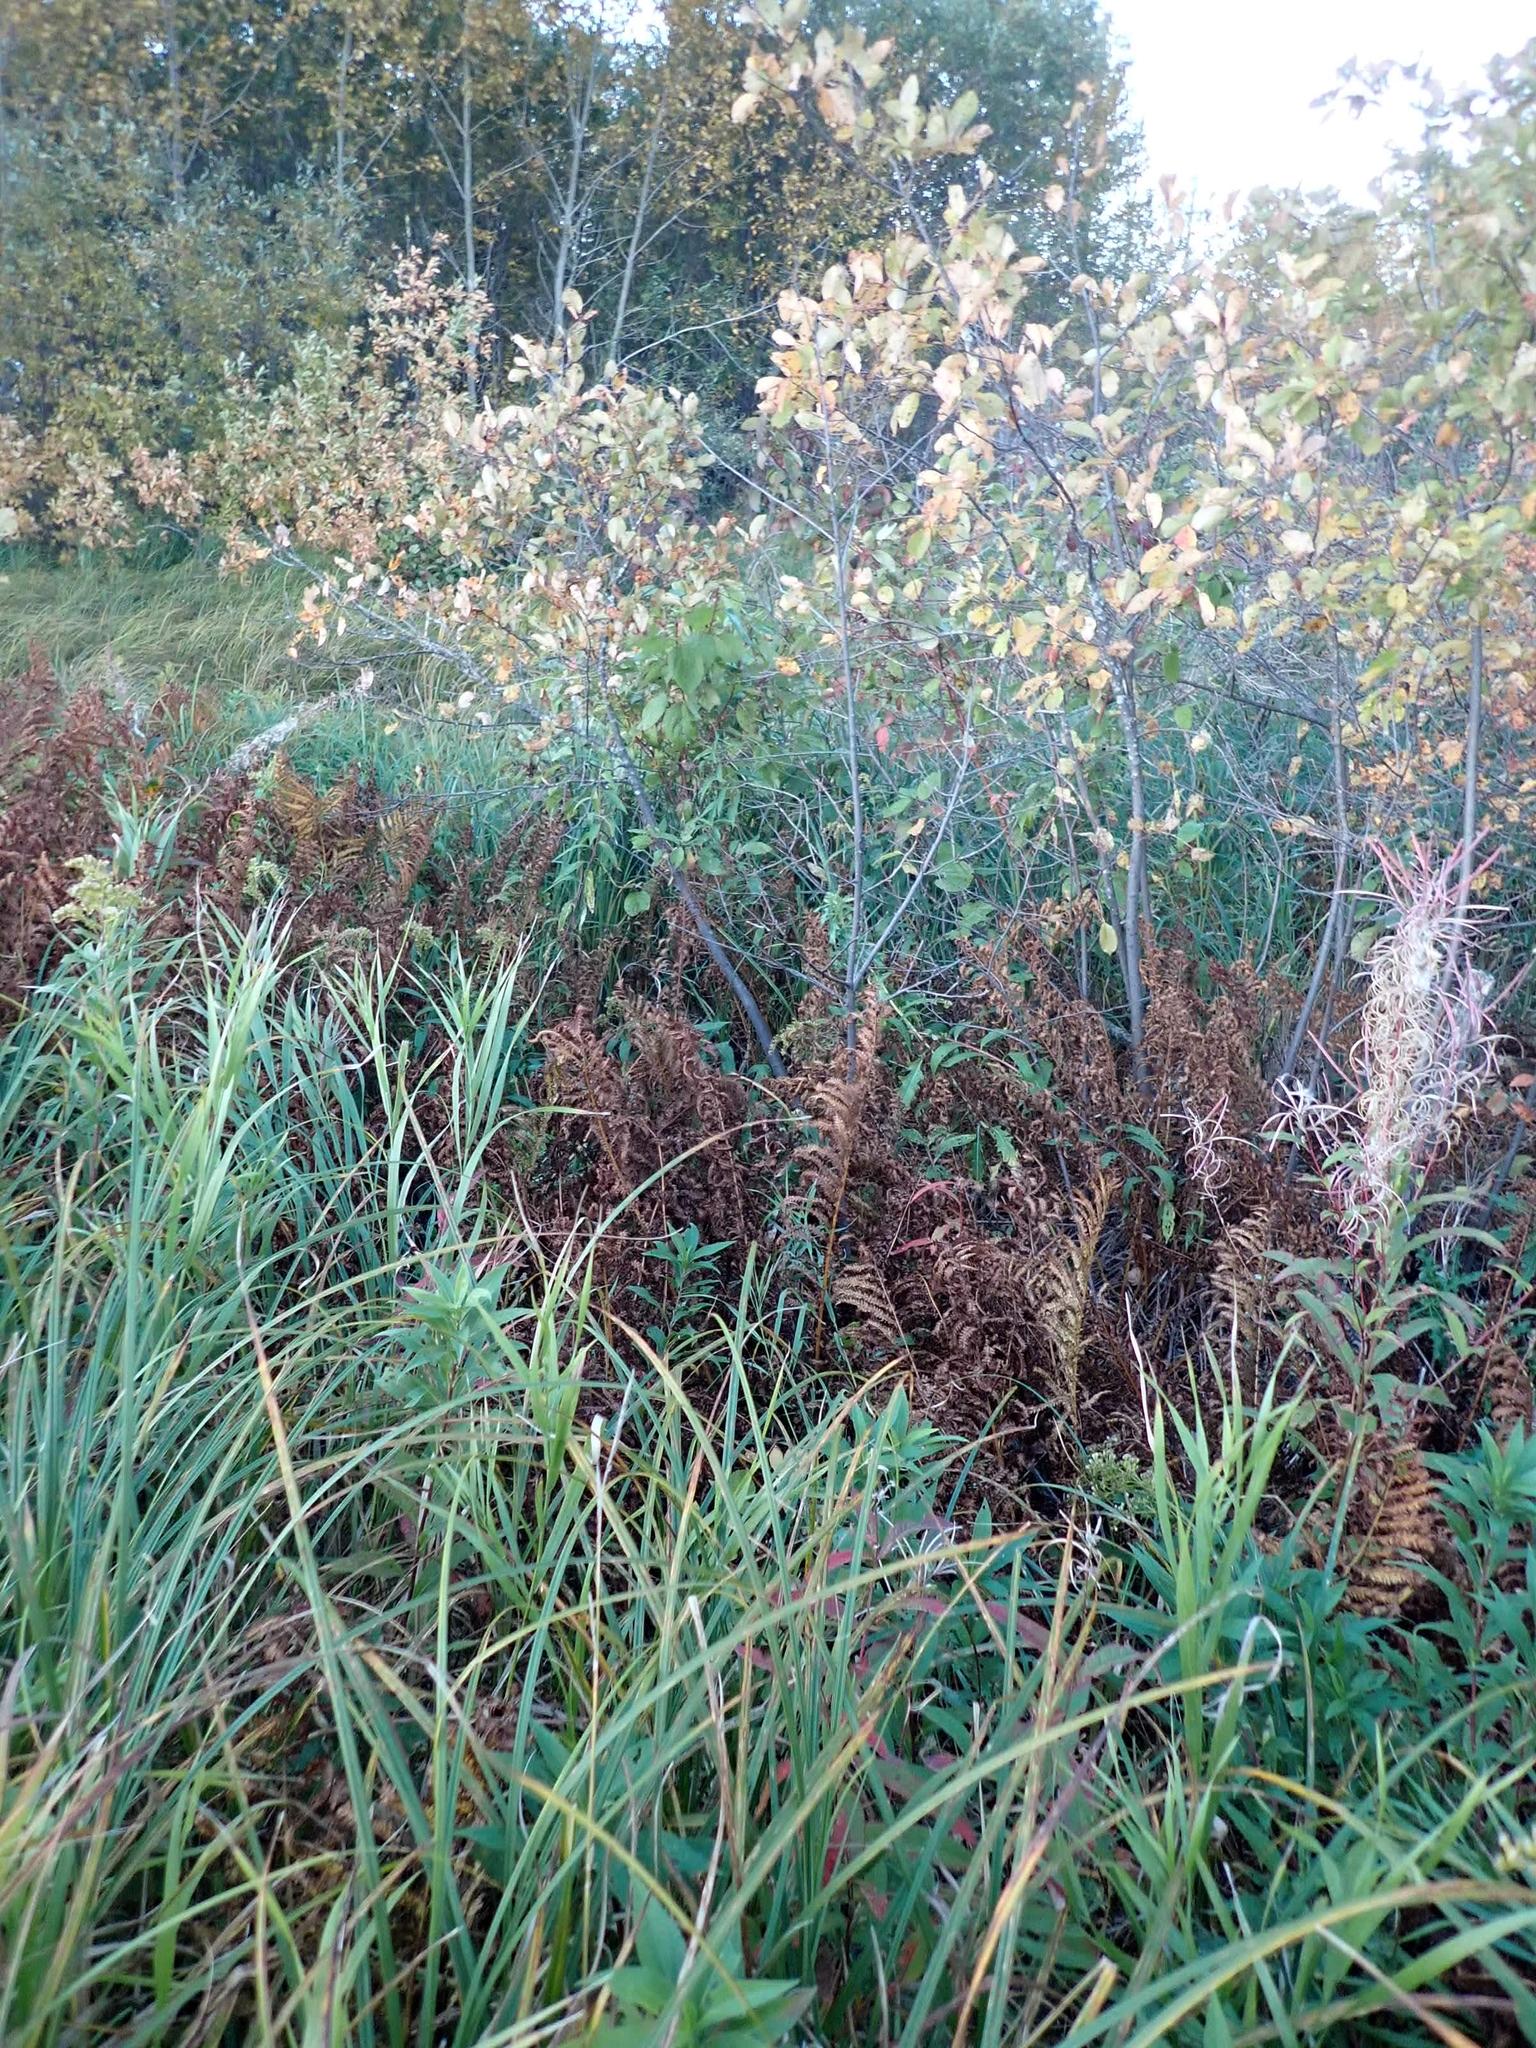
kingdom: Plantae
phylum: Tracheophyta
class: Polypodiopsida
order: Polypodiales
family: Onocleaceae
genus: Matteuccia
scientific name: Matteuccia struthiopteris
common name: Ostrich fern
